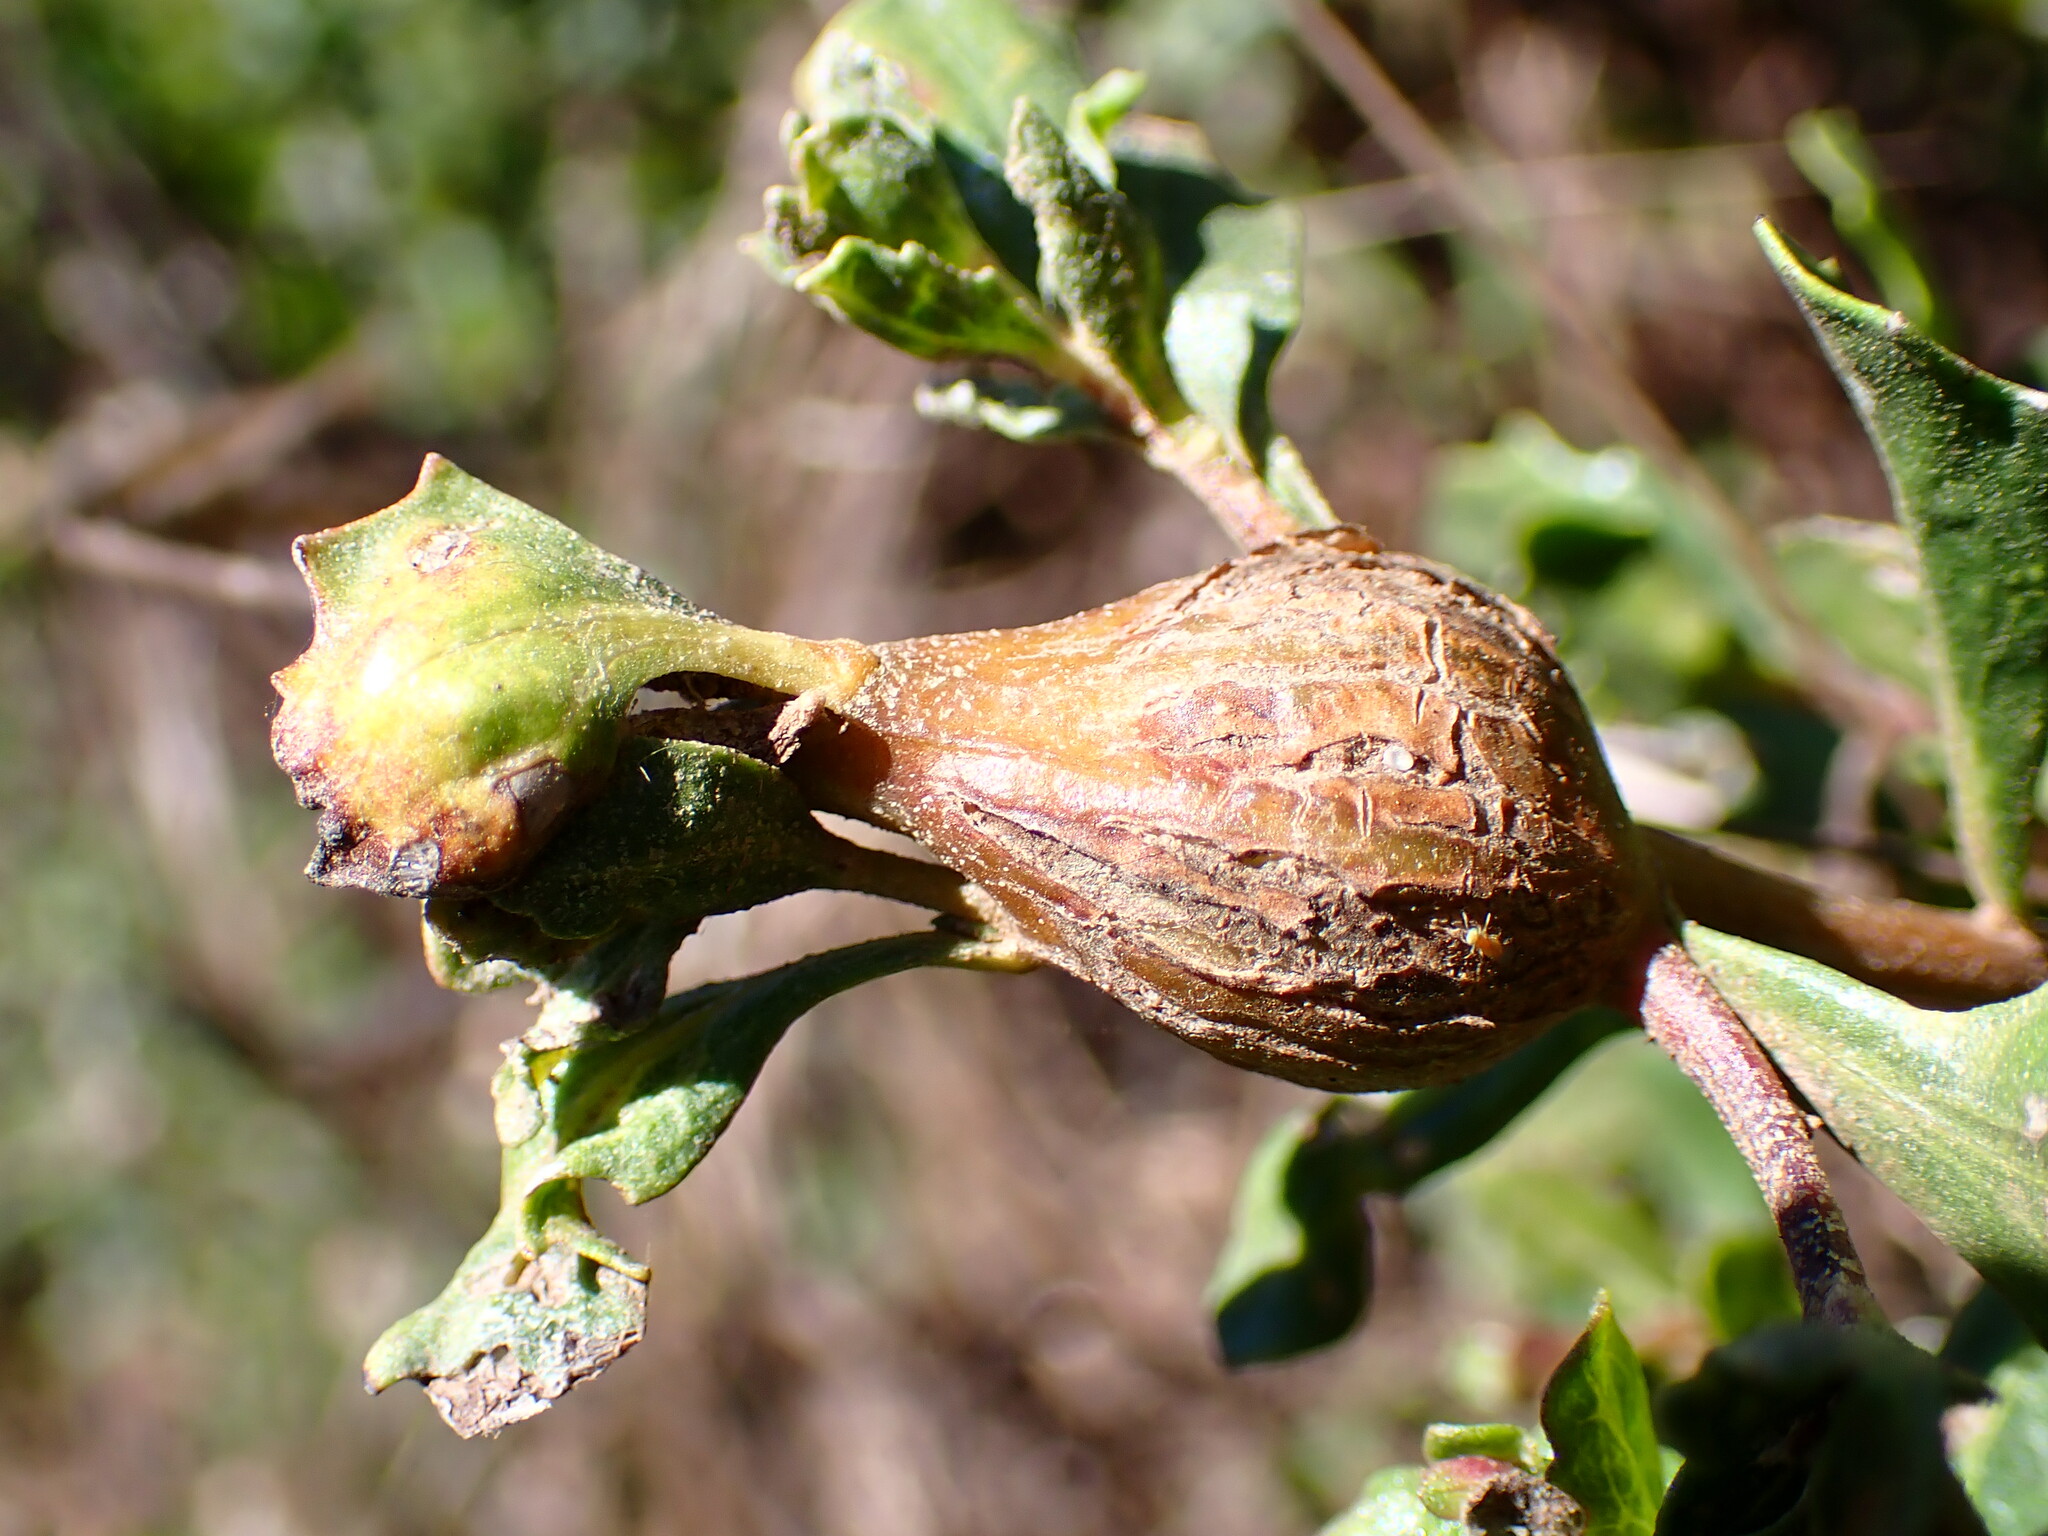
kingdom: Animalia
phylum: Arthropoda
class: Insecta
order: Lepidoptera
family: Gelechiidae
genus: Gnorimoschema
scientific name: Gnorimoschema baccharisella
